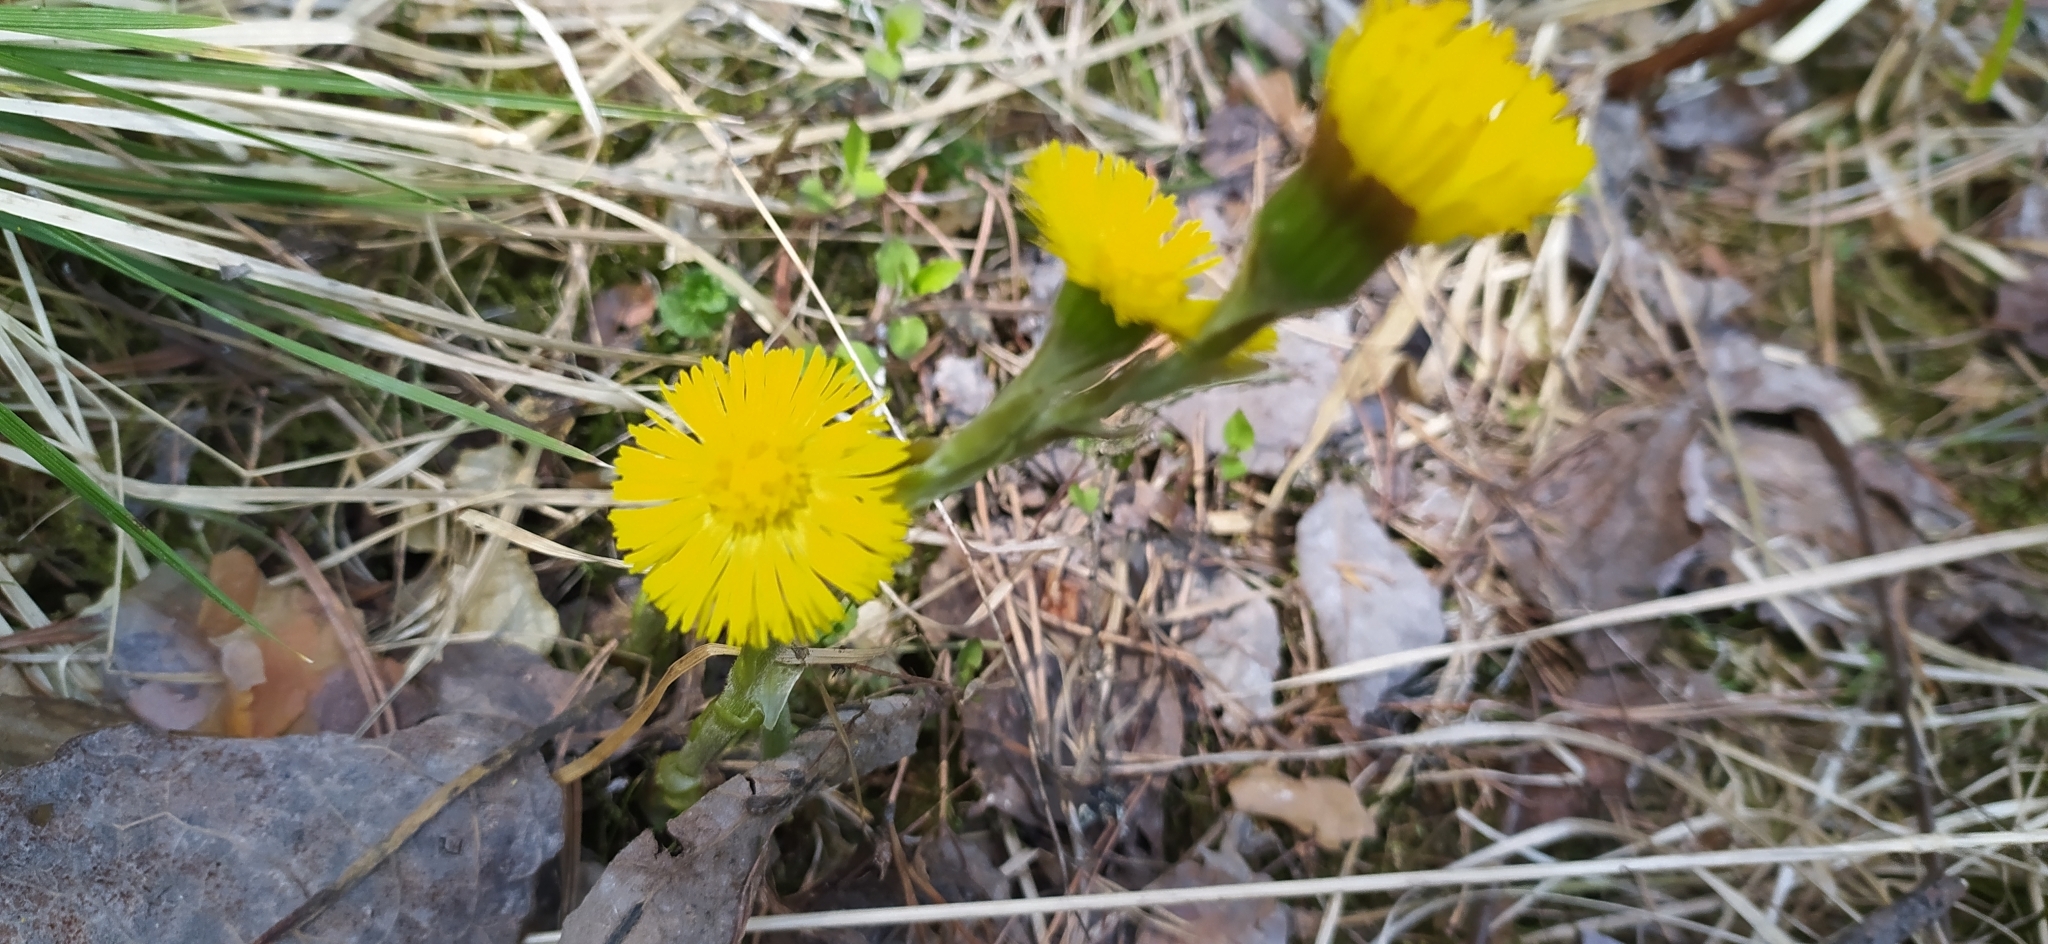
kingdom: Plantae
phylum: Tracheophyta
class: Magnoliopsida
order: Asterales
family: Asteraceae
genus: Tussilago
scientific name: Tussilago farfara
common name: Coltsfoot
